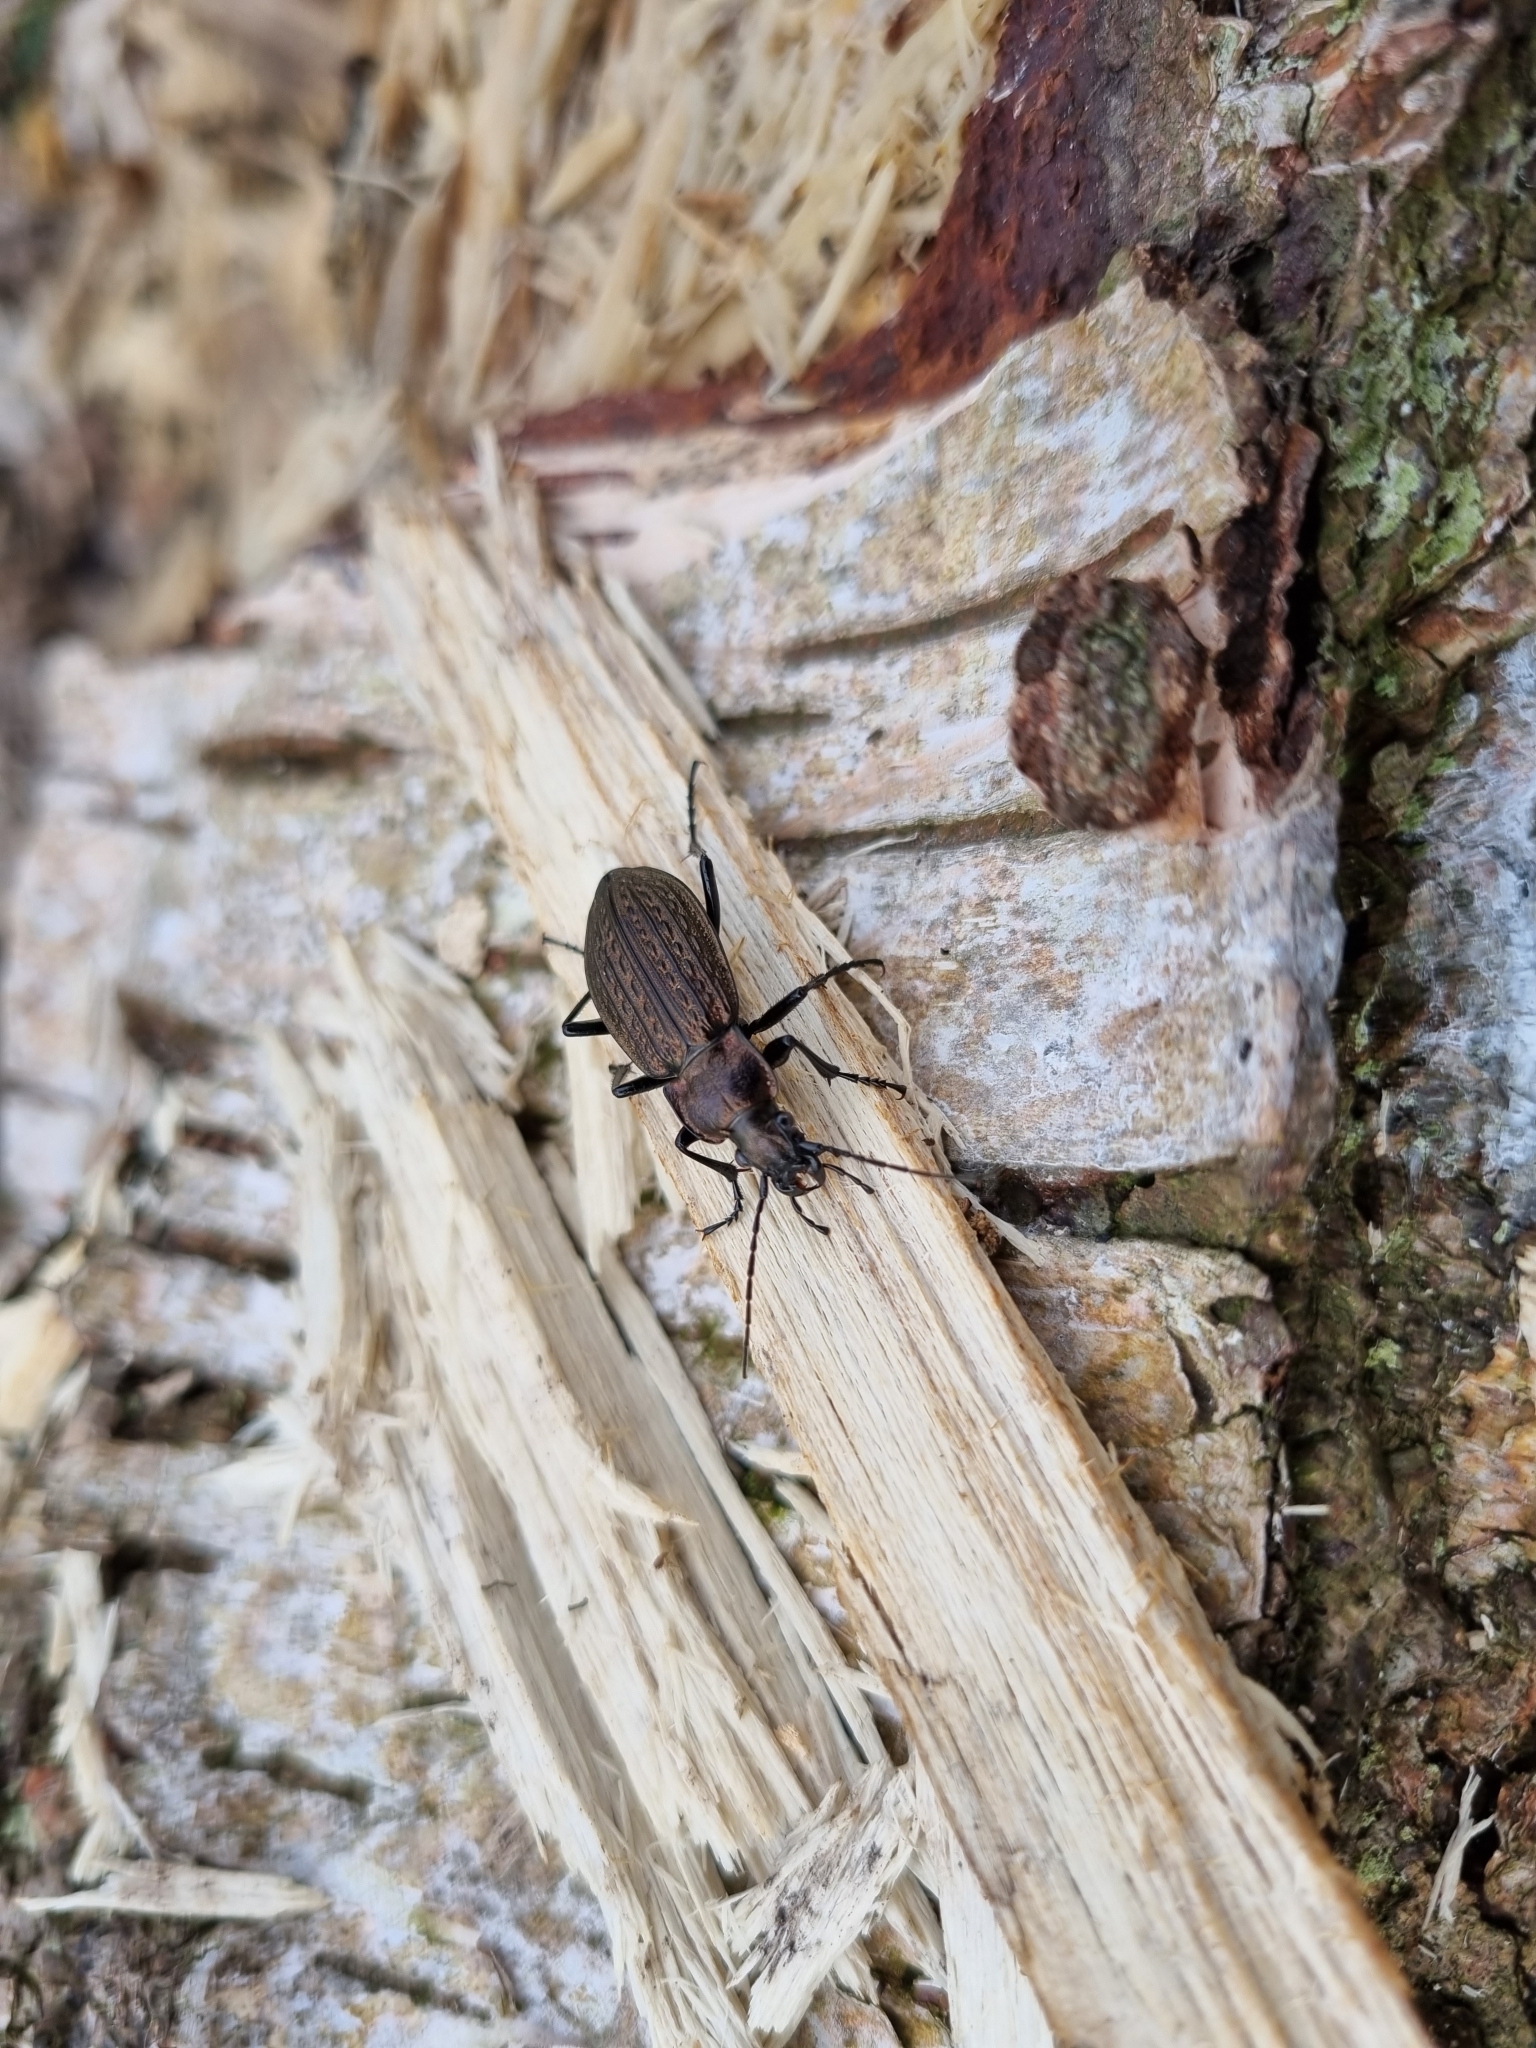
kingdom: Animalia
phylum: Arthropoda
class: Insecta
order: Coleoptera
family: Carabidae
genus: Carabus
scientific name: Carabus granulatus
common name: Granulate ground beetle
